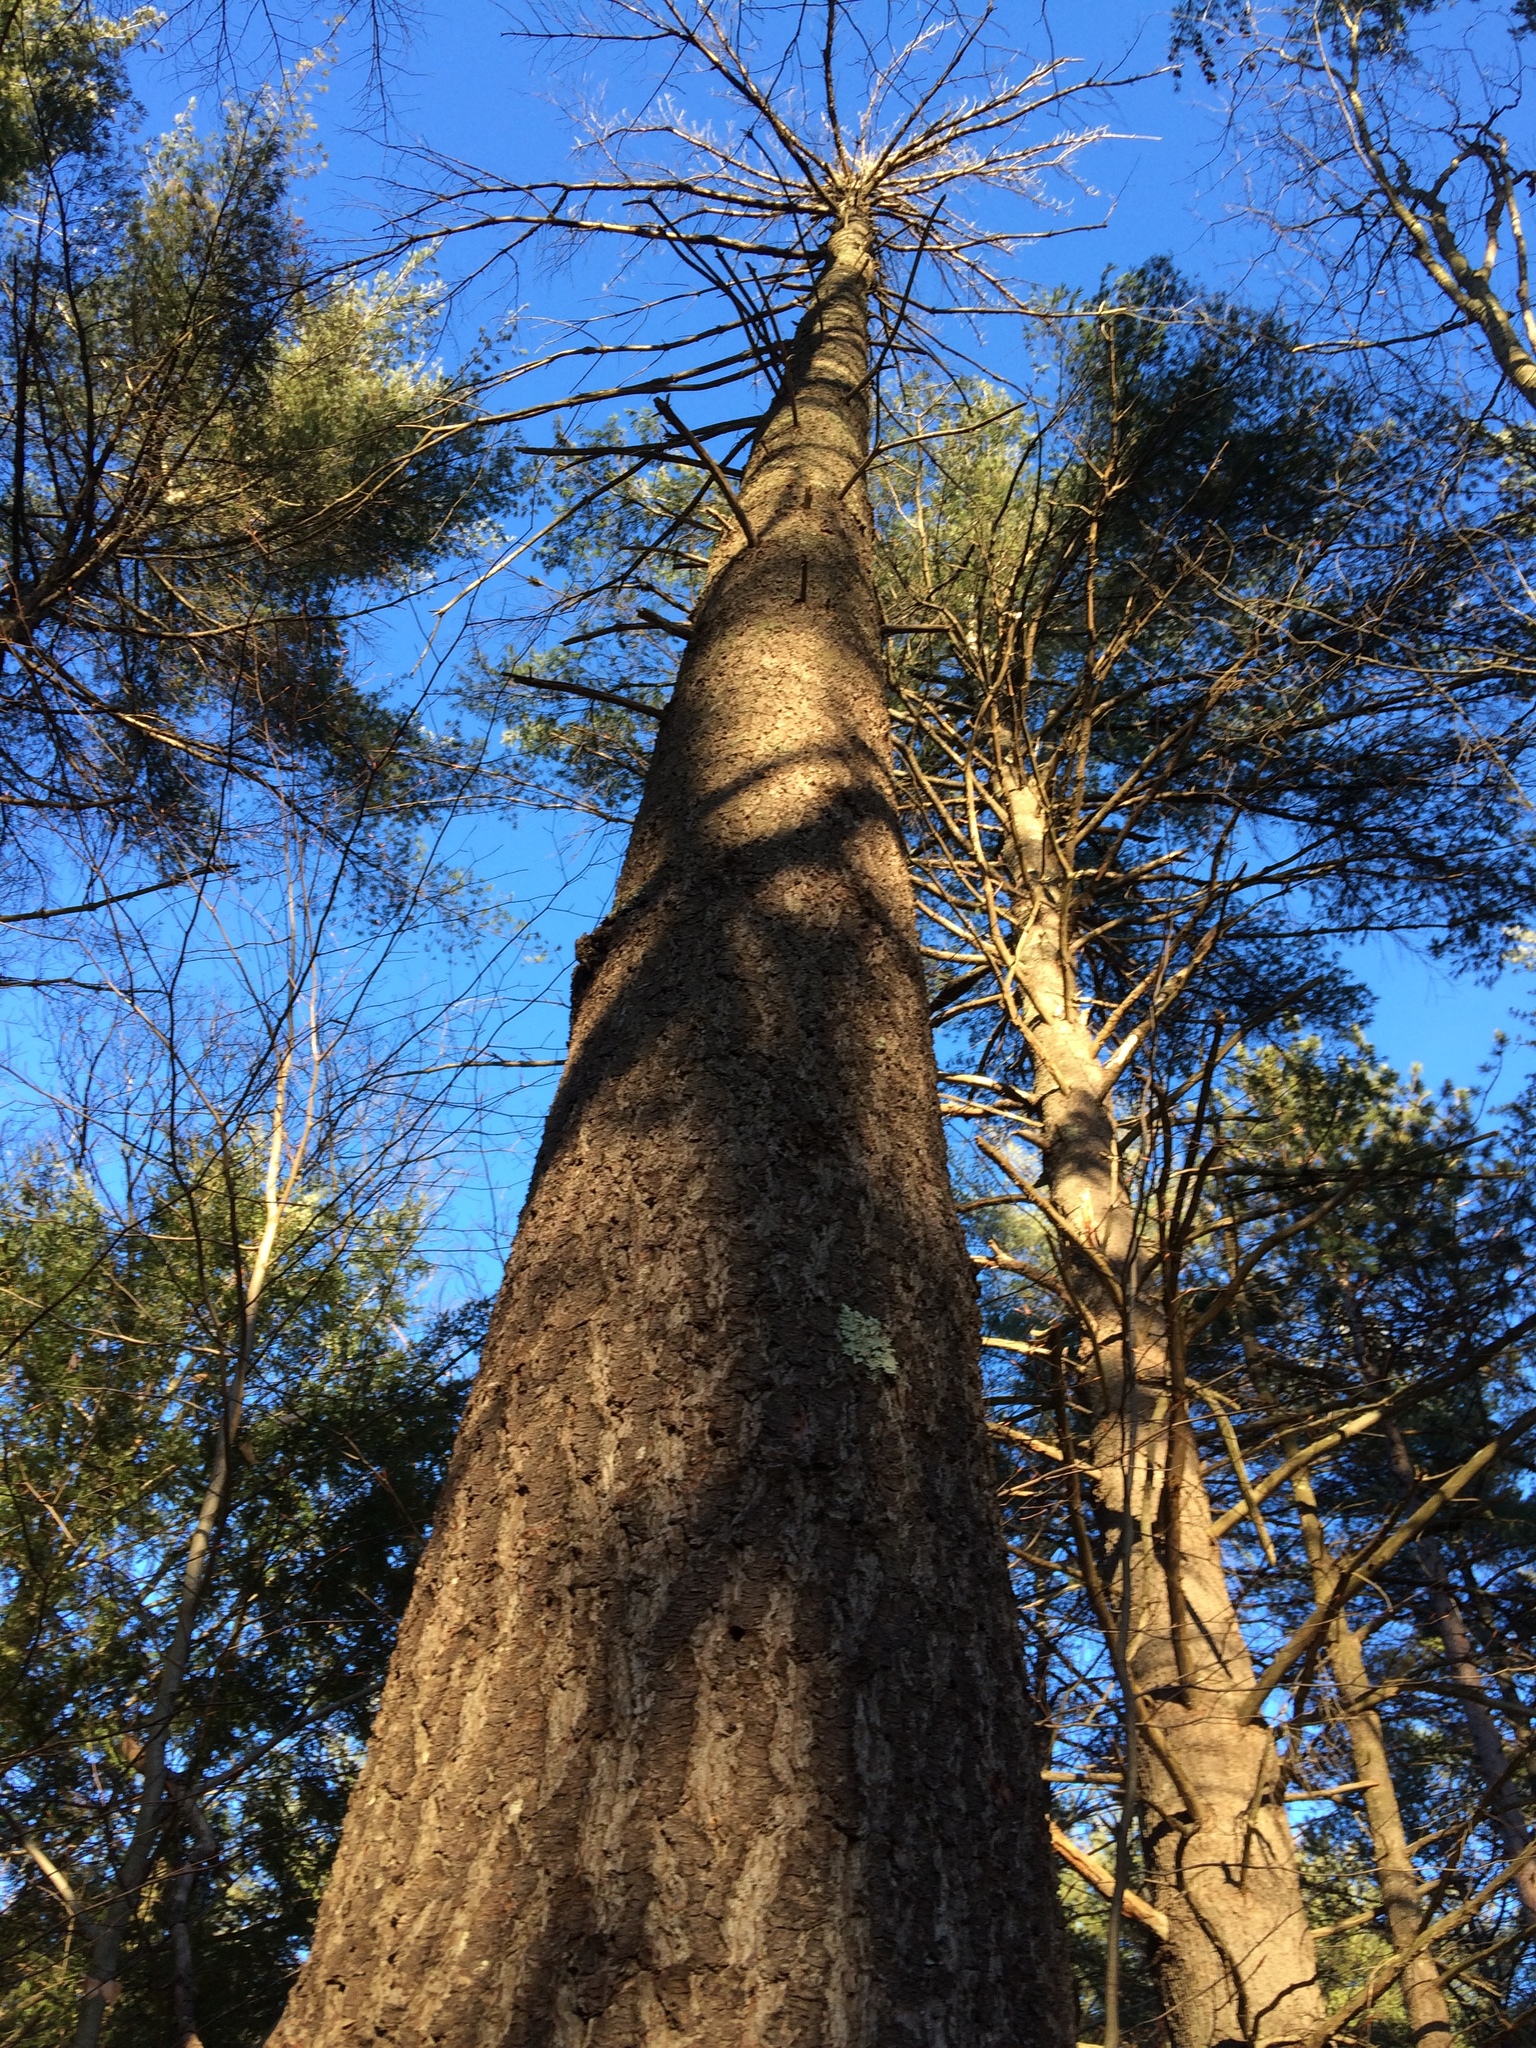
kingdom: Plantae
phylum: Tracheophyta
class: Pinopsida
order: Pinales
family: Pinaceae
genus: Pinus
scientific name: Pinus strobus
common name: Weymouth pine
